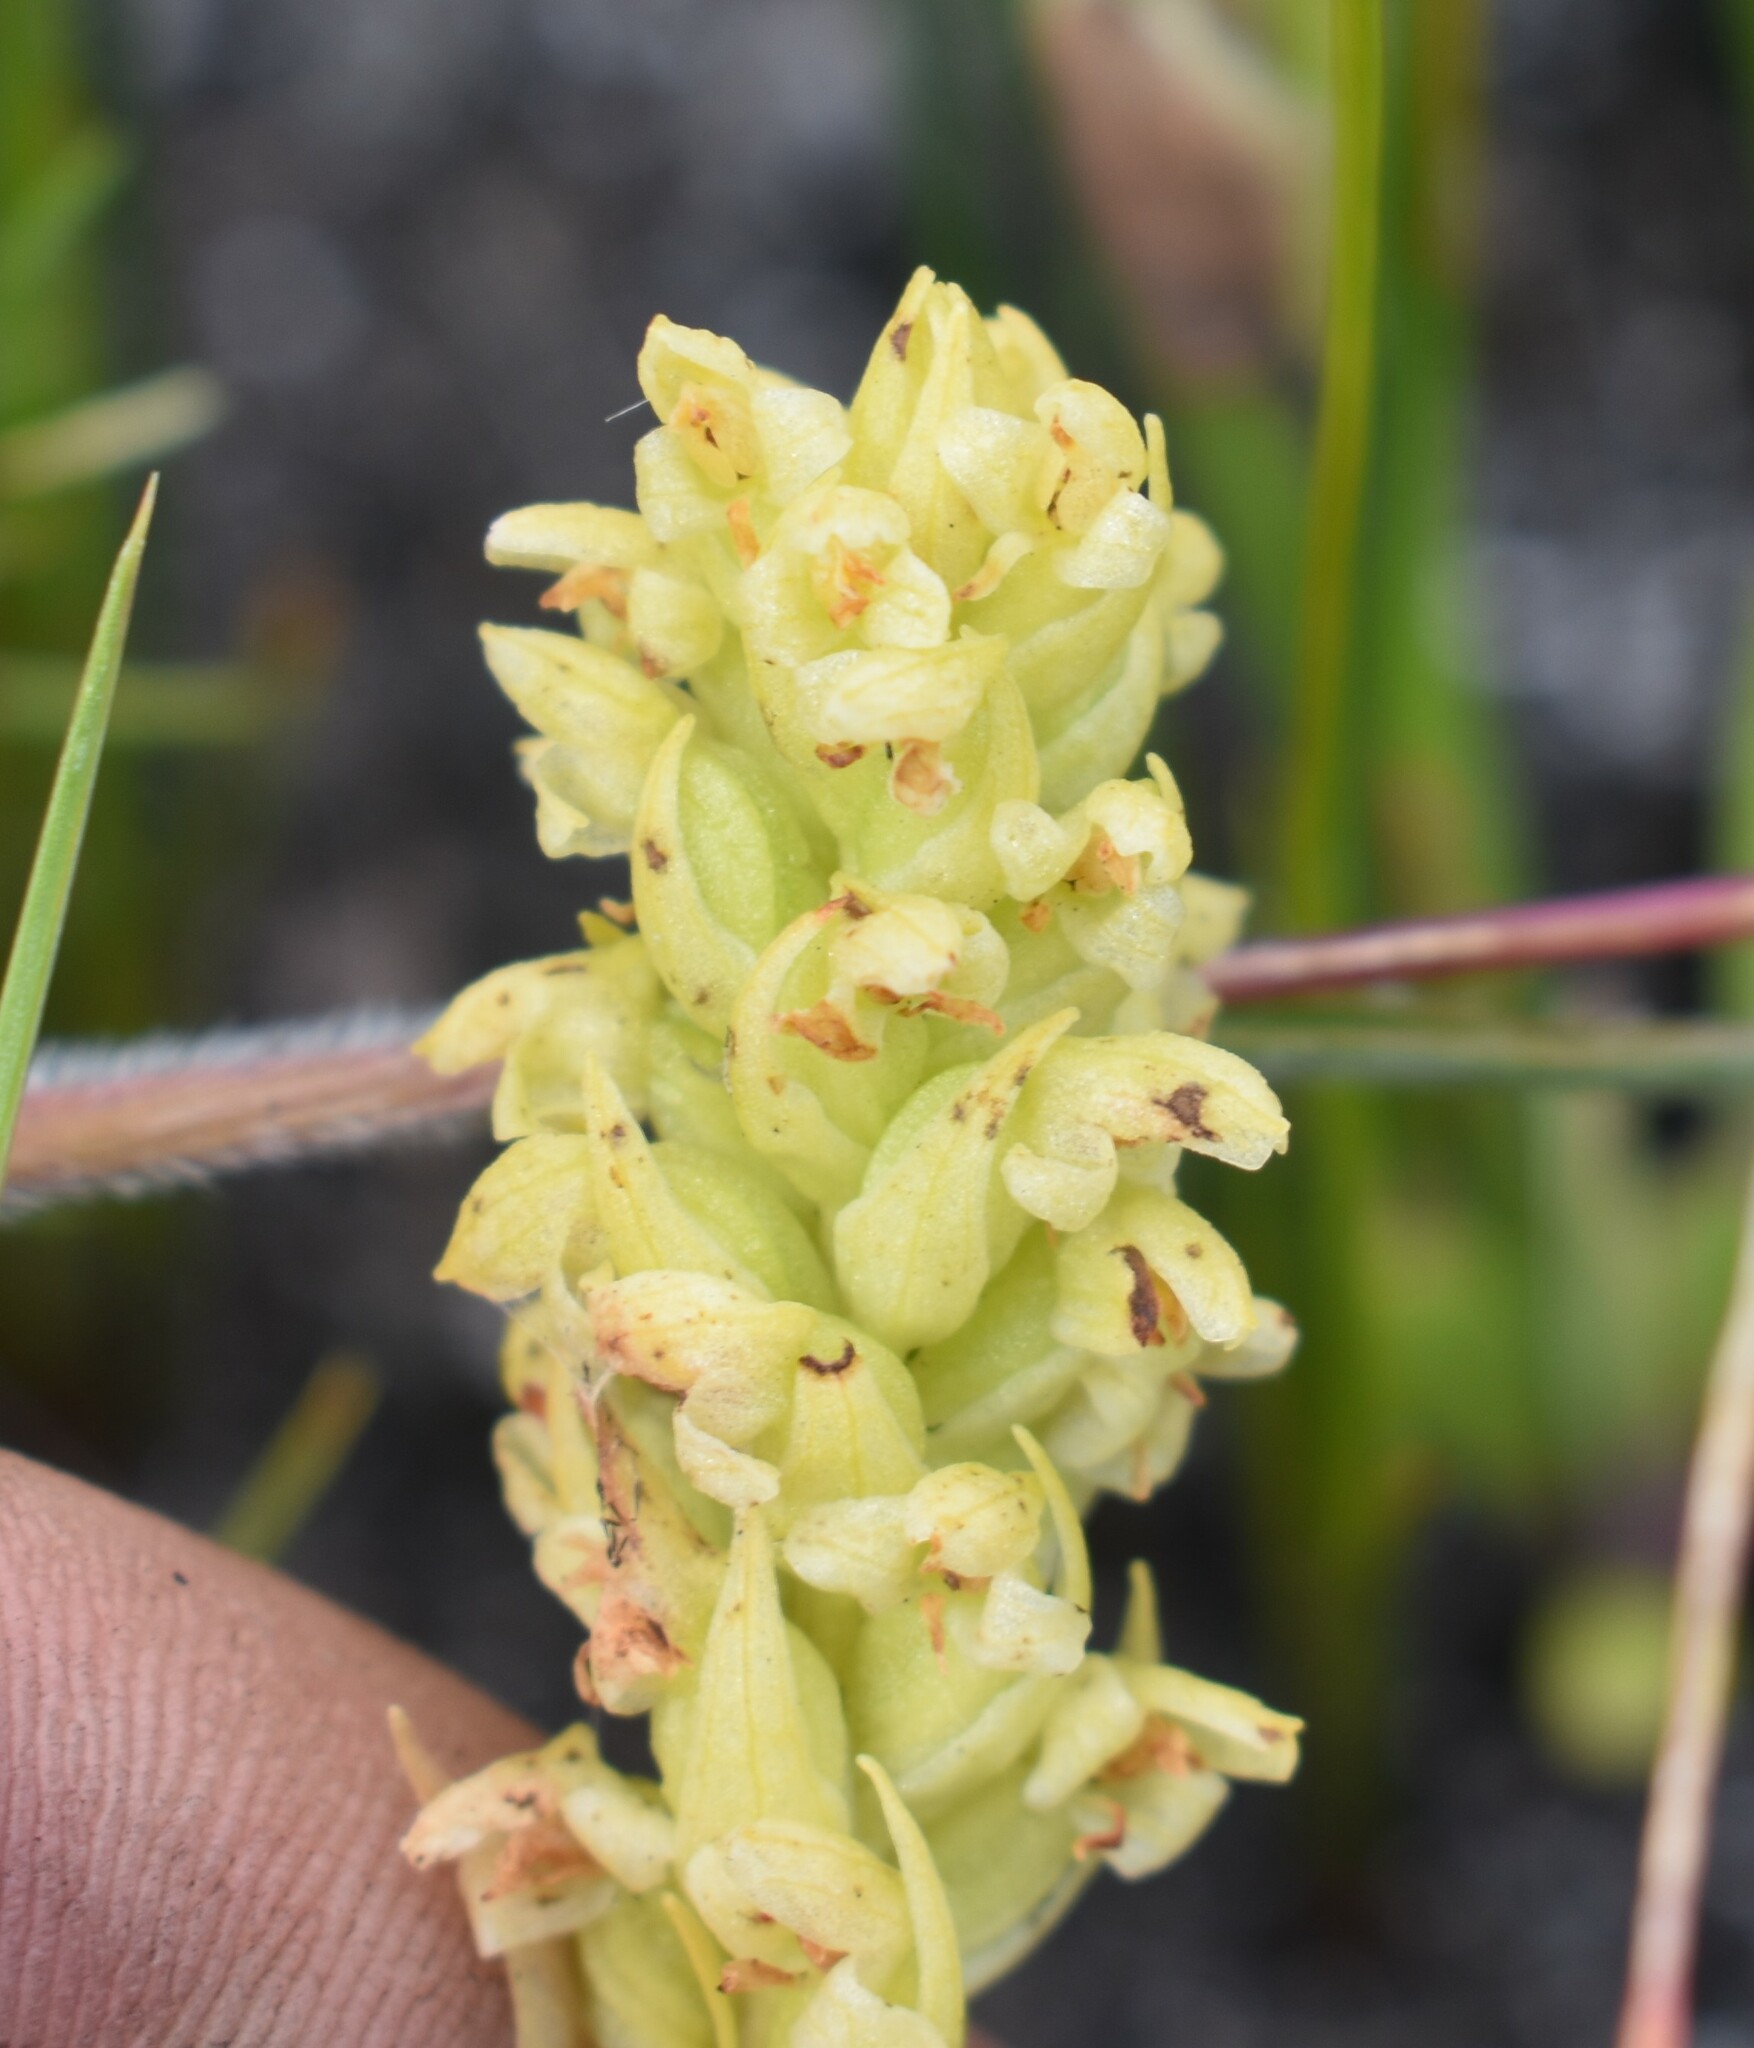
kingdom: Plantae
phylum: Tracheophyta
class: Liliopsida
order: Asparagales
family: Orchidaceae
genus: Disa
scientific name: Disa cylindrica
